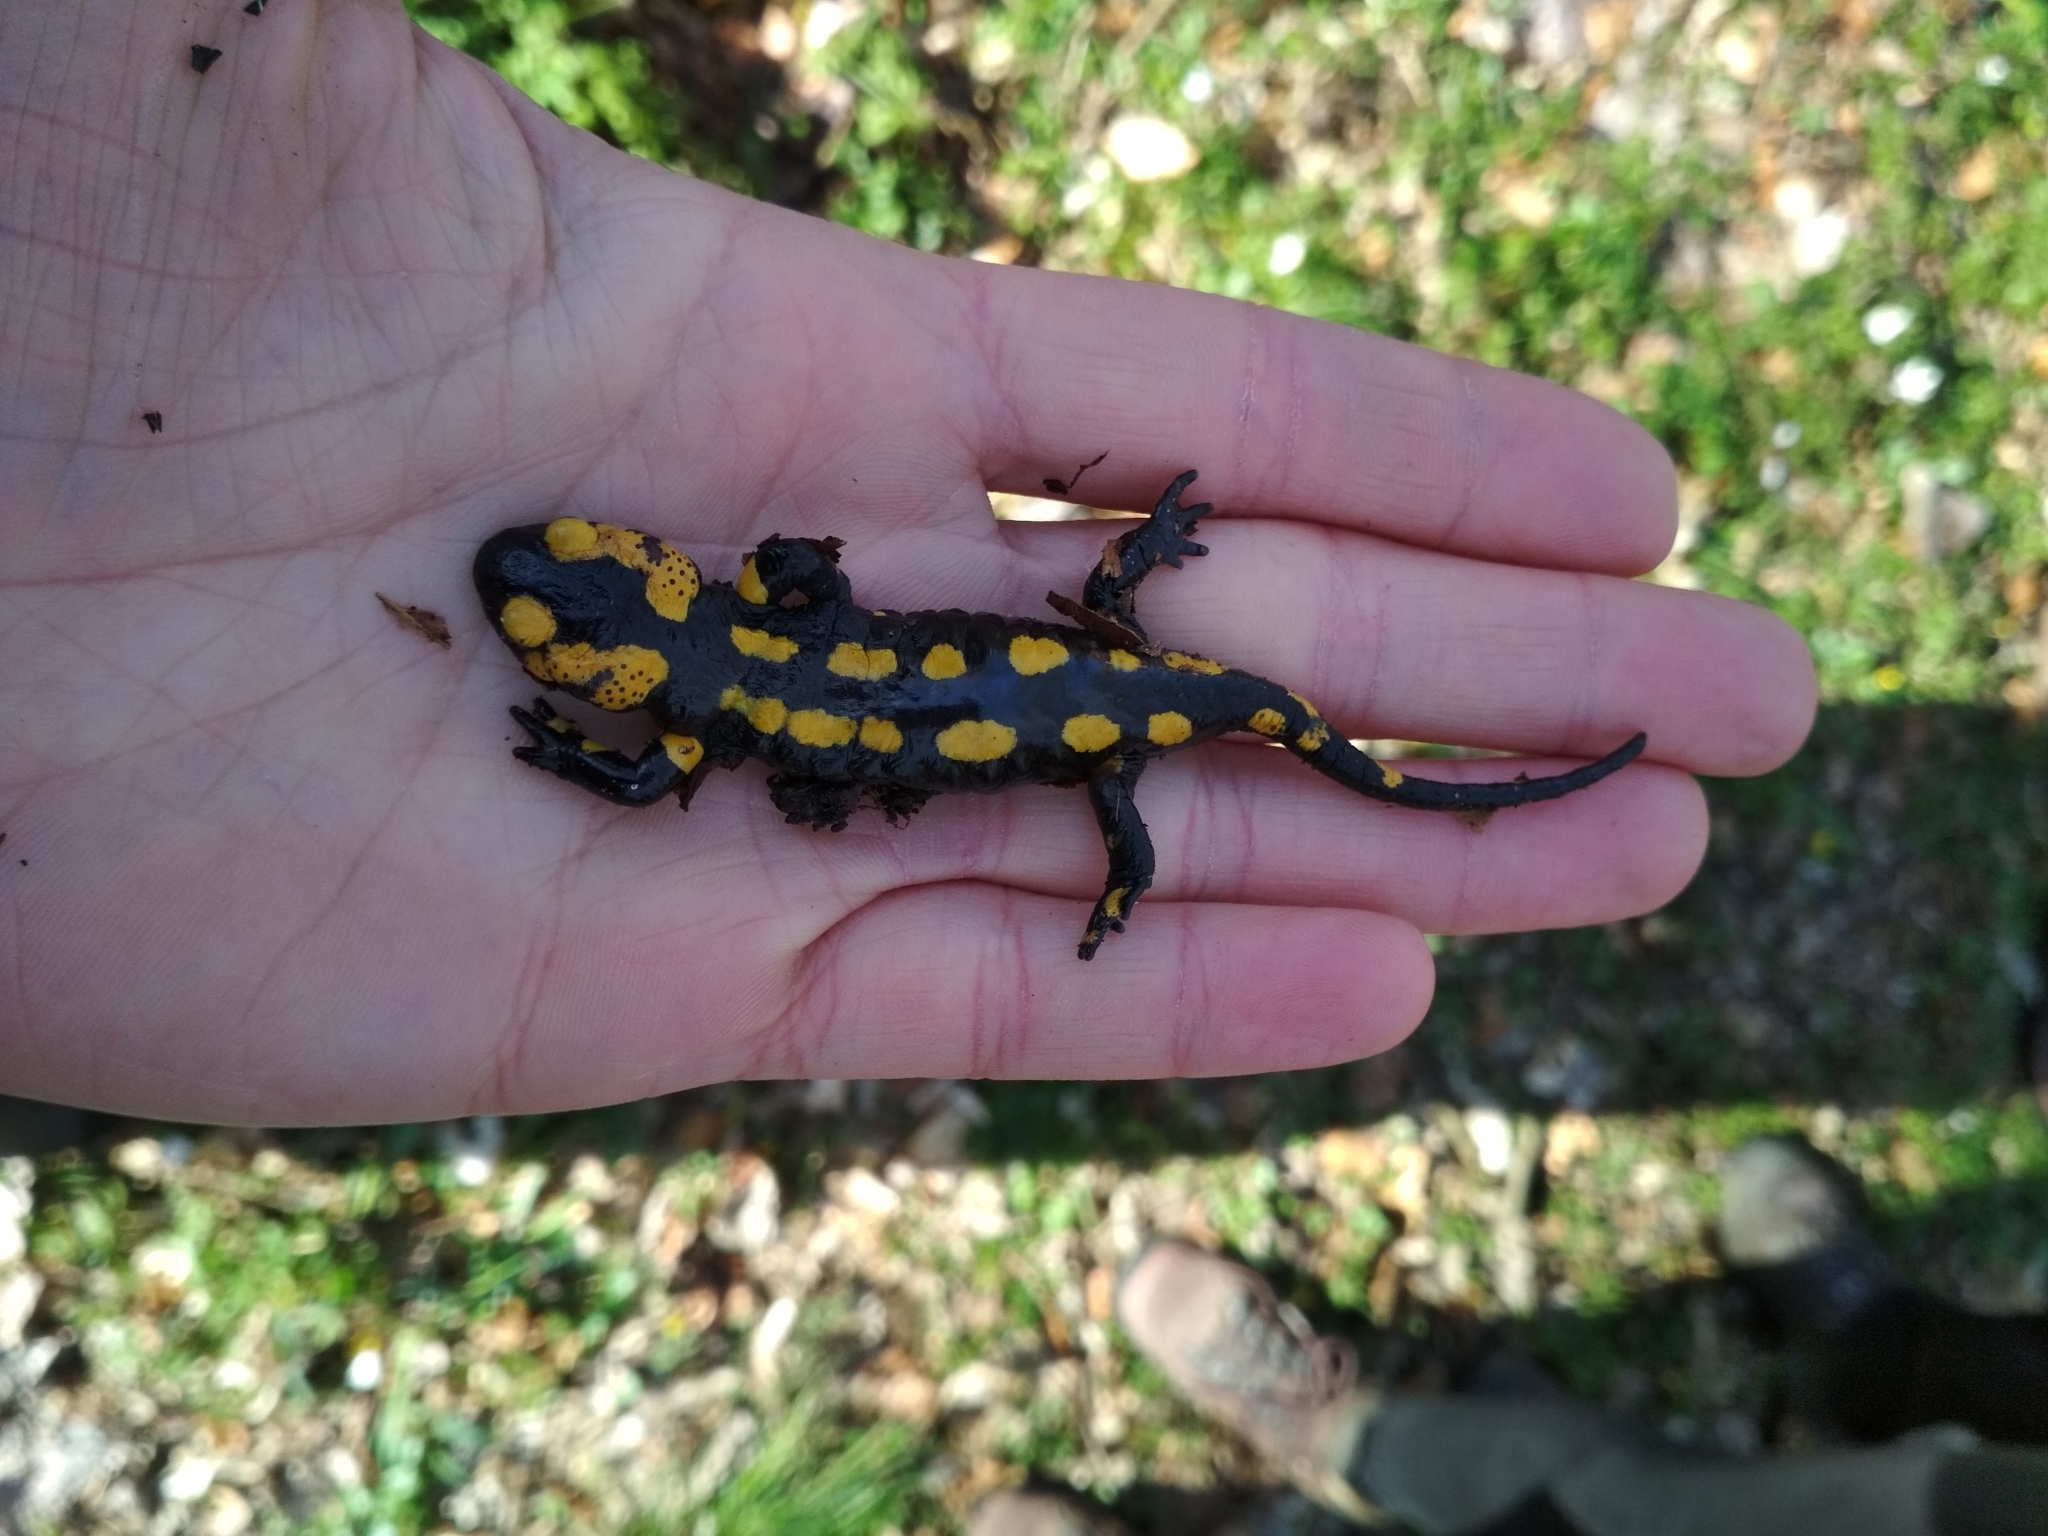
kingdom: Animalia
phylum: Chordata
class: Amphibia
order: Caudata
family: Salamandridae
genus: Salamandra
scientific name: Salamandra salamandra
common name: Fire salamander
